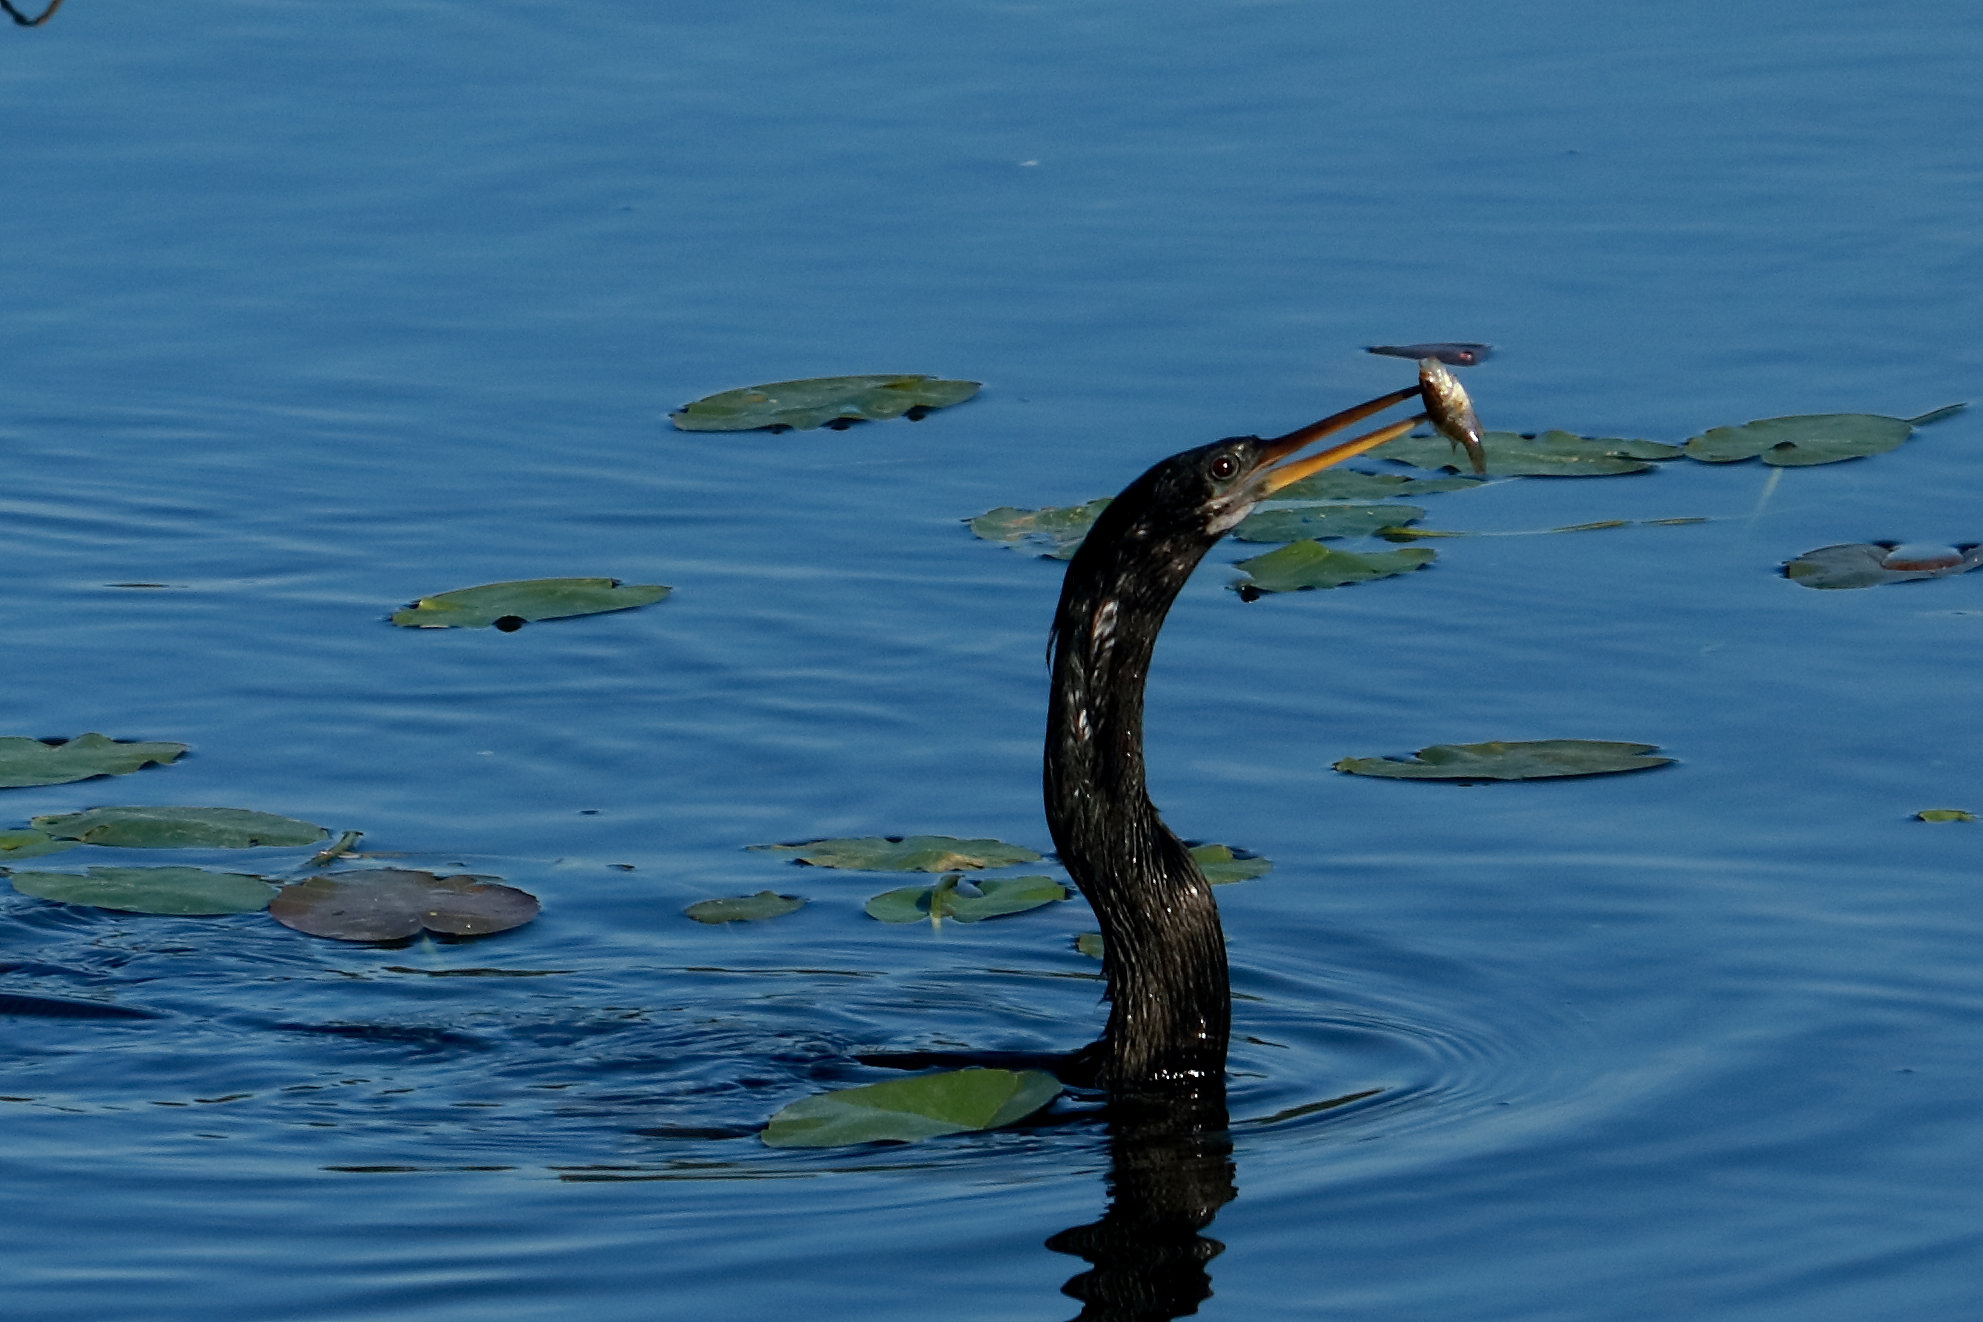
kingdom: Animalia
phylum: Chordata
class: Aves
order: Suliformes
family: Anhingidae
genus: Anhinga
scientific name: Anhinga anhinga
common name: Anhinga
